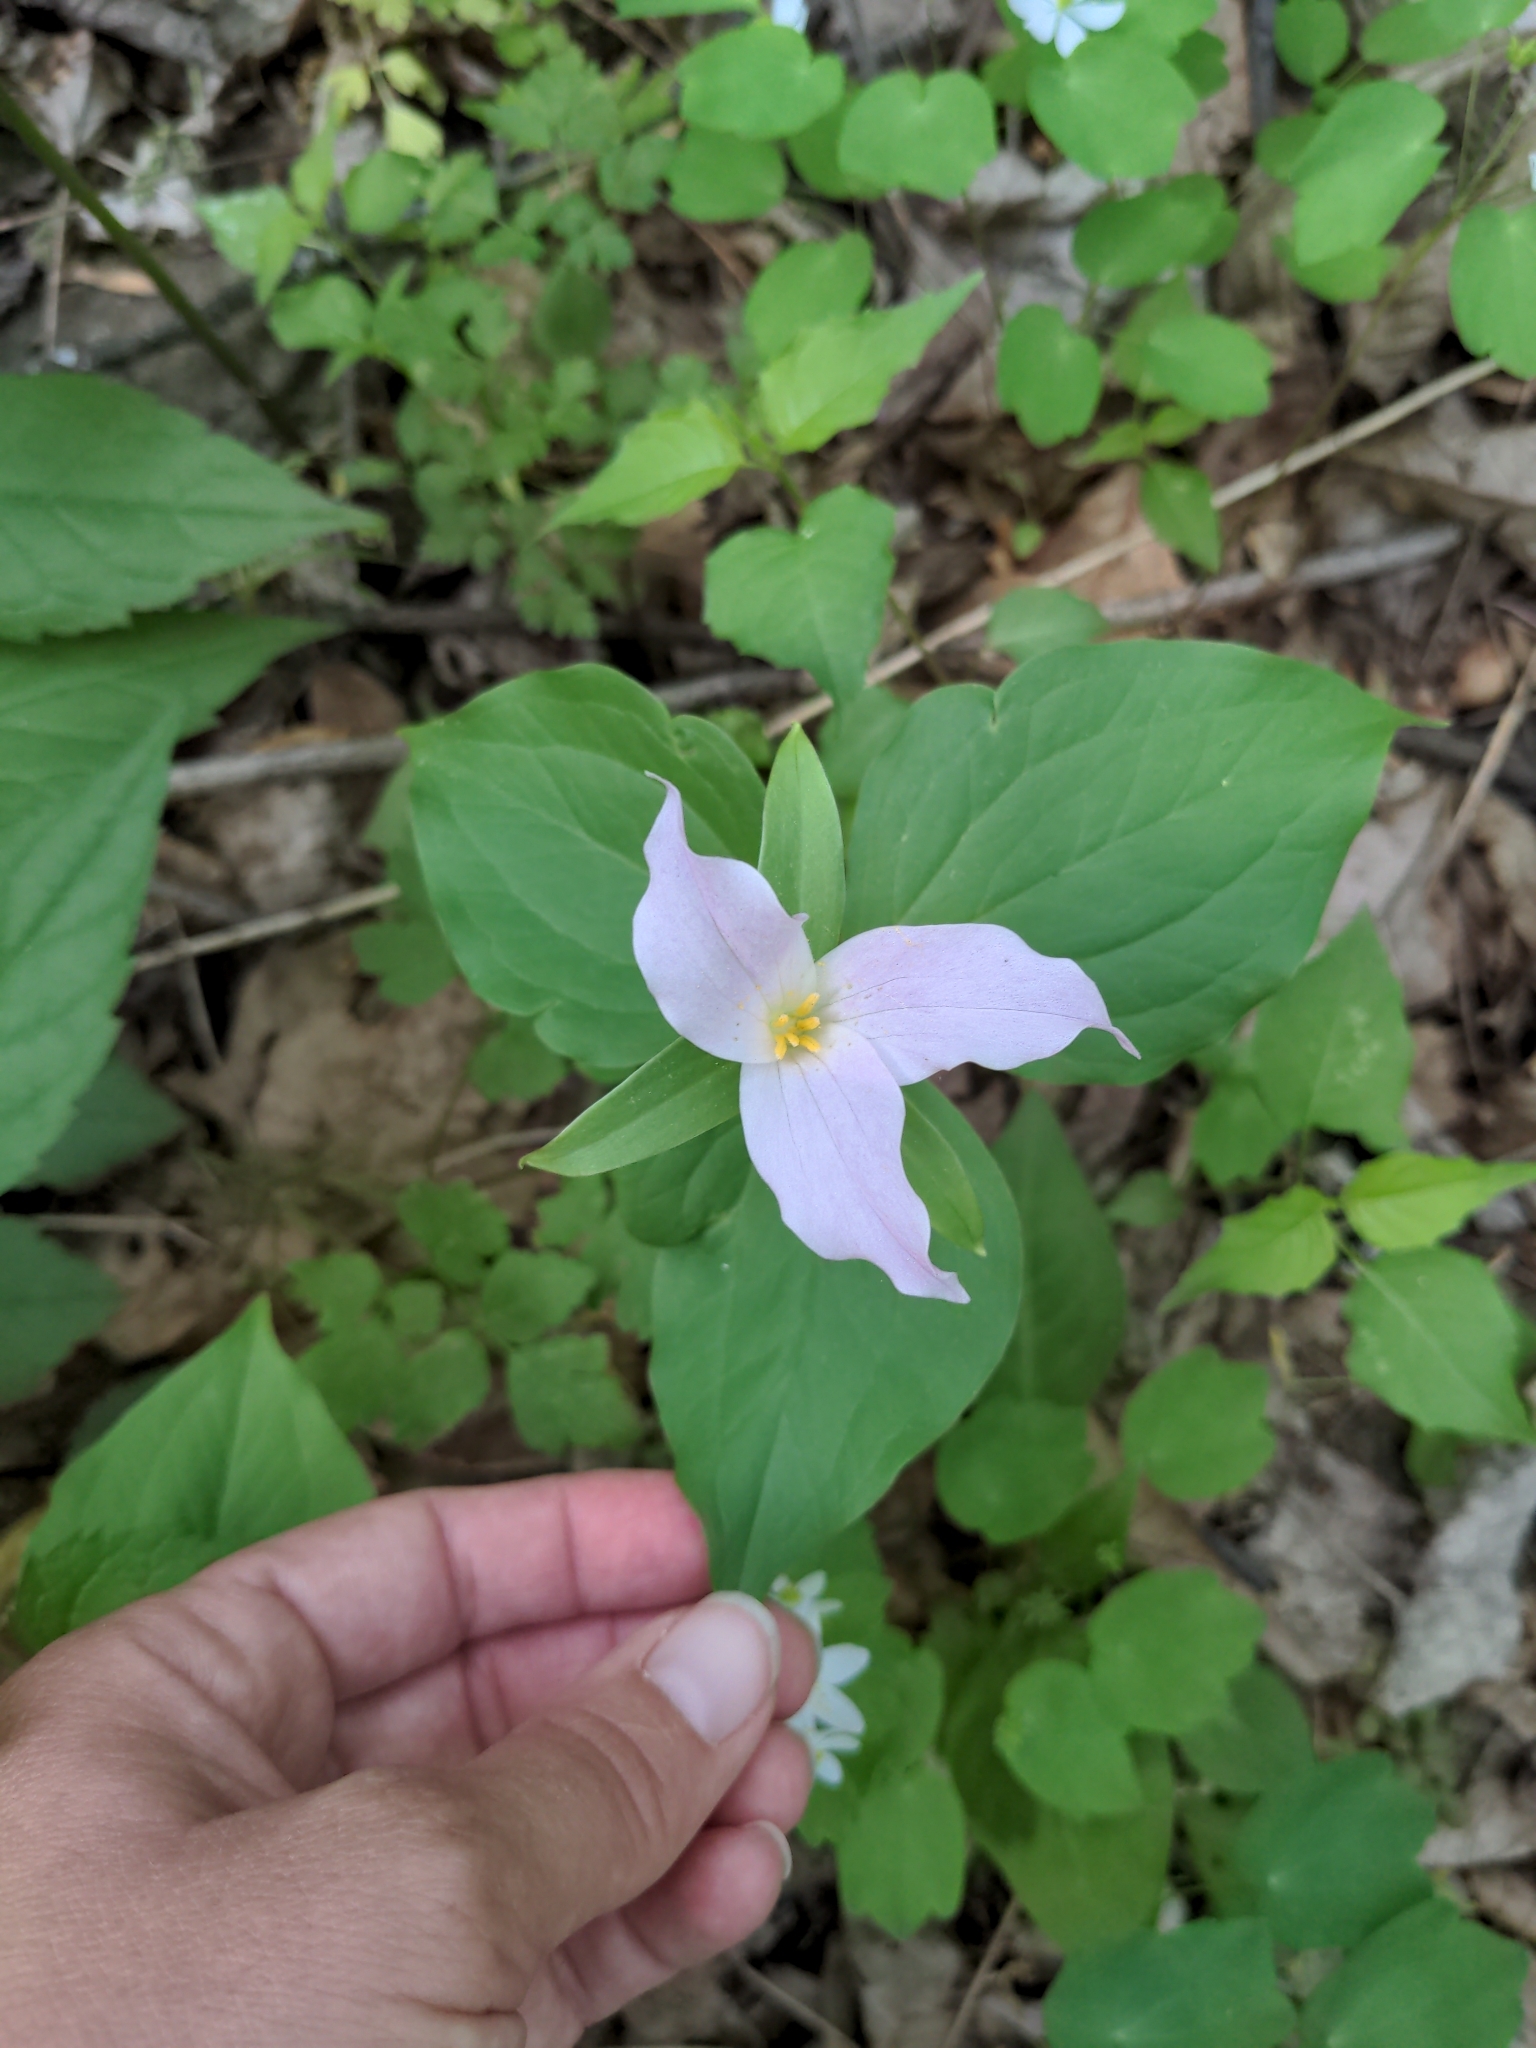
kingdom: Plantae
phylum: Tracheophyta
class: Liliopsida
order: Liliales
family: Melanthiaceae
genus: Trillium
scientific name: Trillium grandiflorum
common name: Great white trillium
